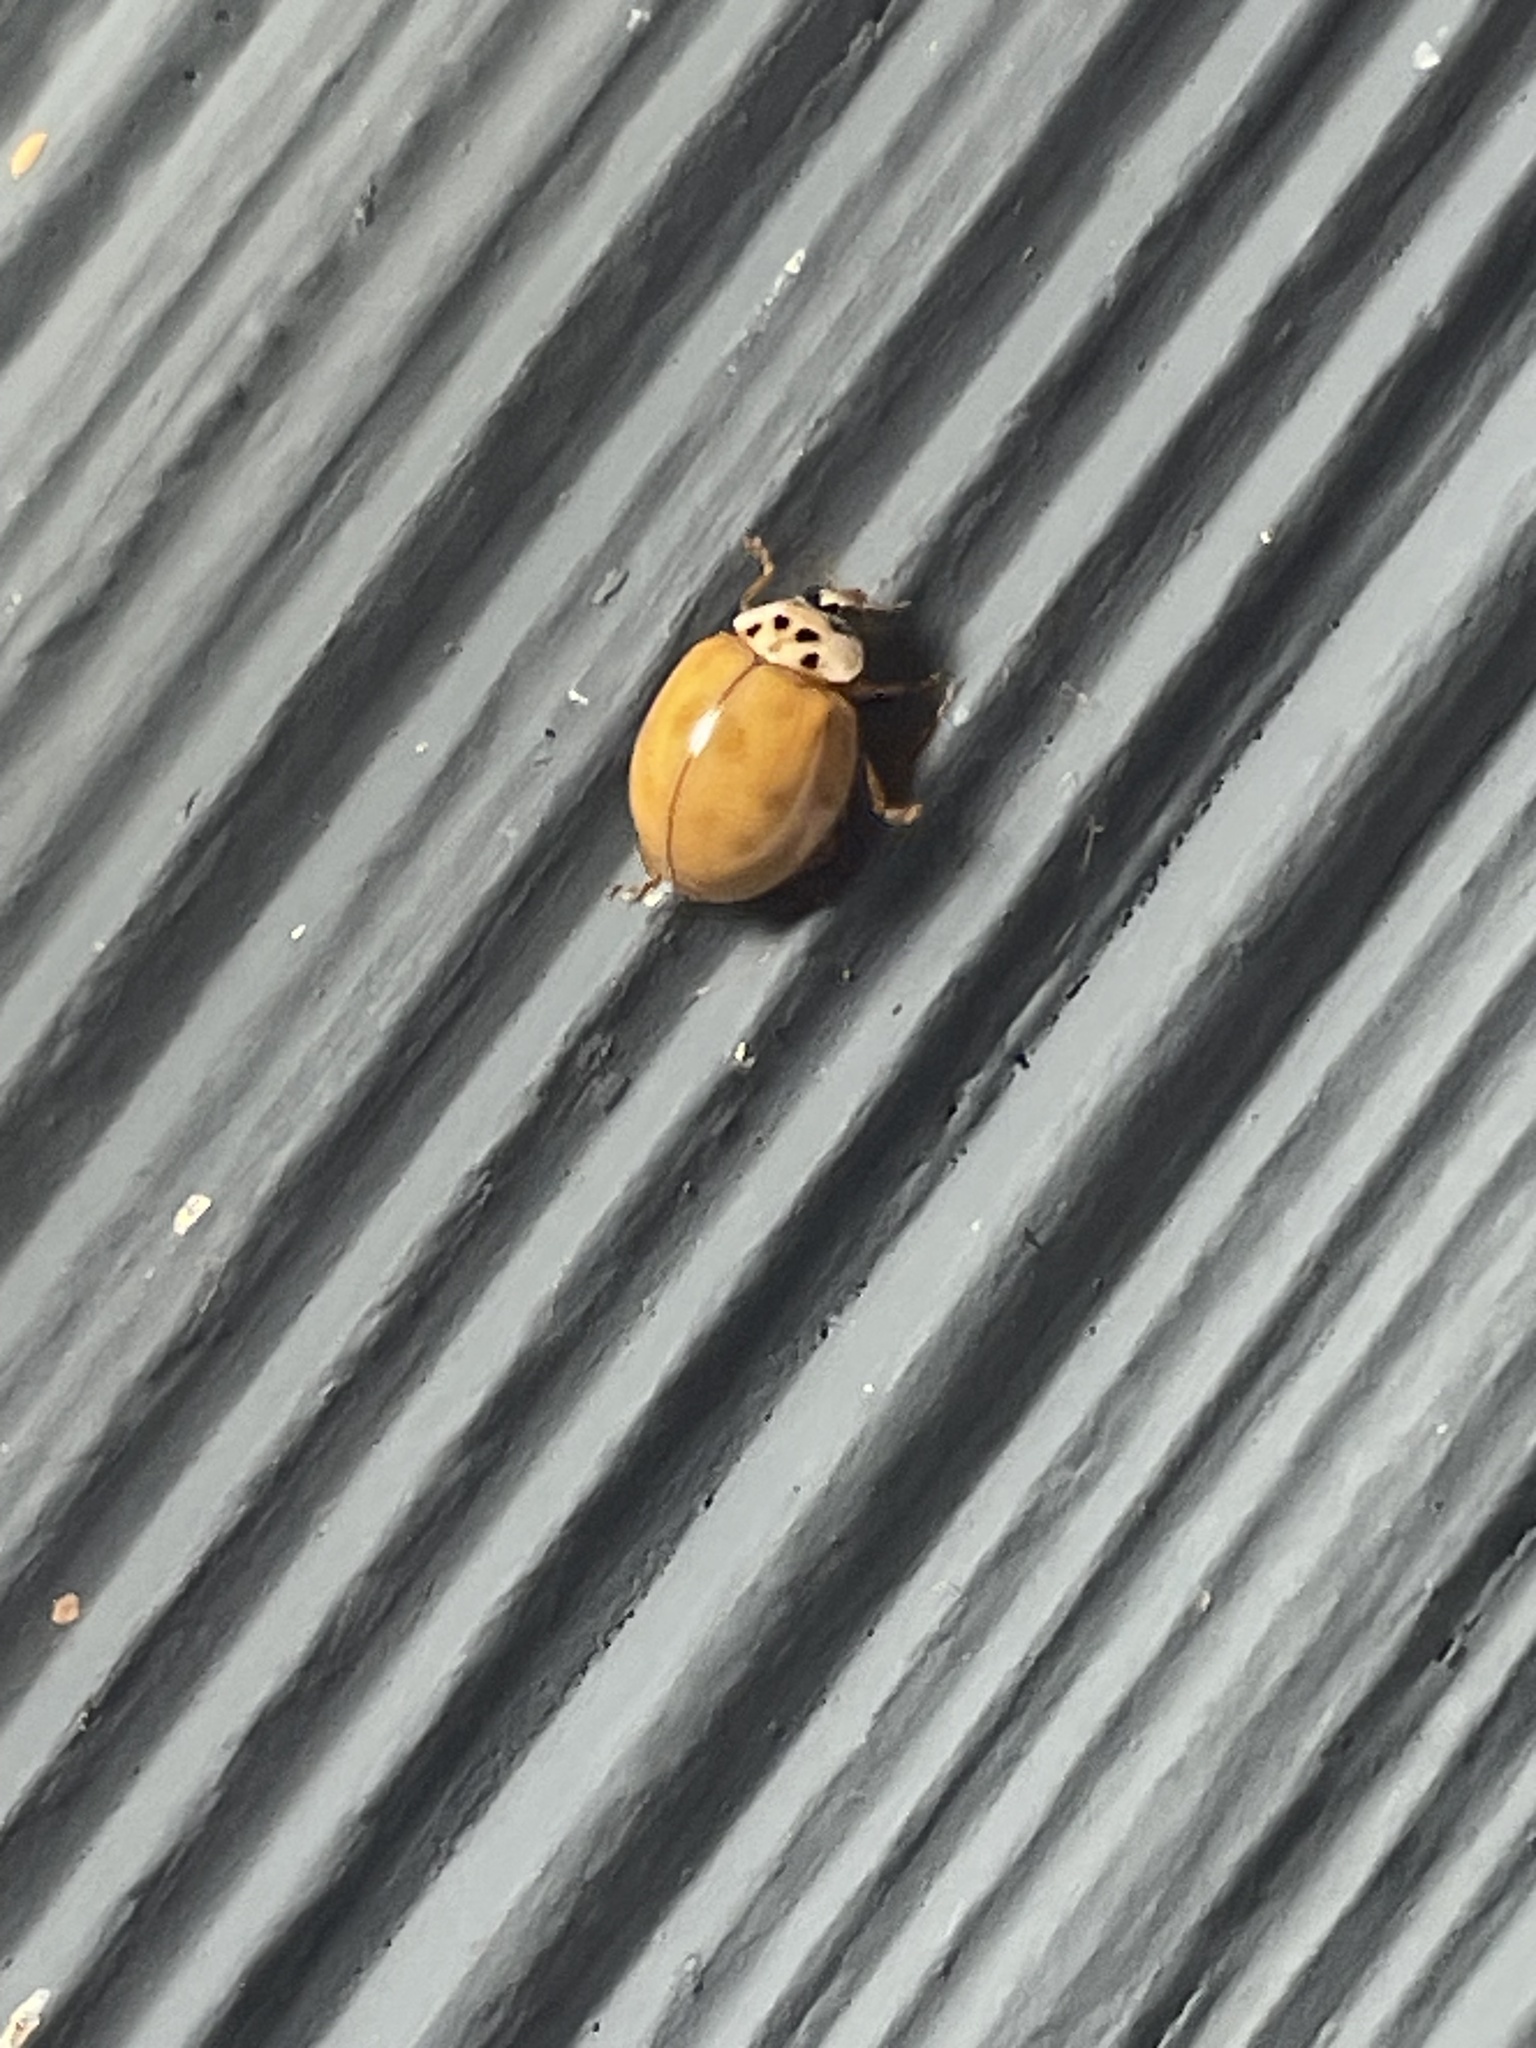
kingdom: Animalia
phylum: Arthropoda
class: Insecta
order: Coleoptera
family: Coccinellidae
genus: Harmonia
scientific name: Harmonia axyridis
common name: Harlequin ladybird
